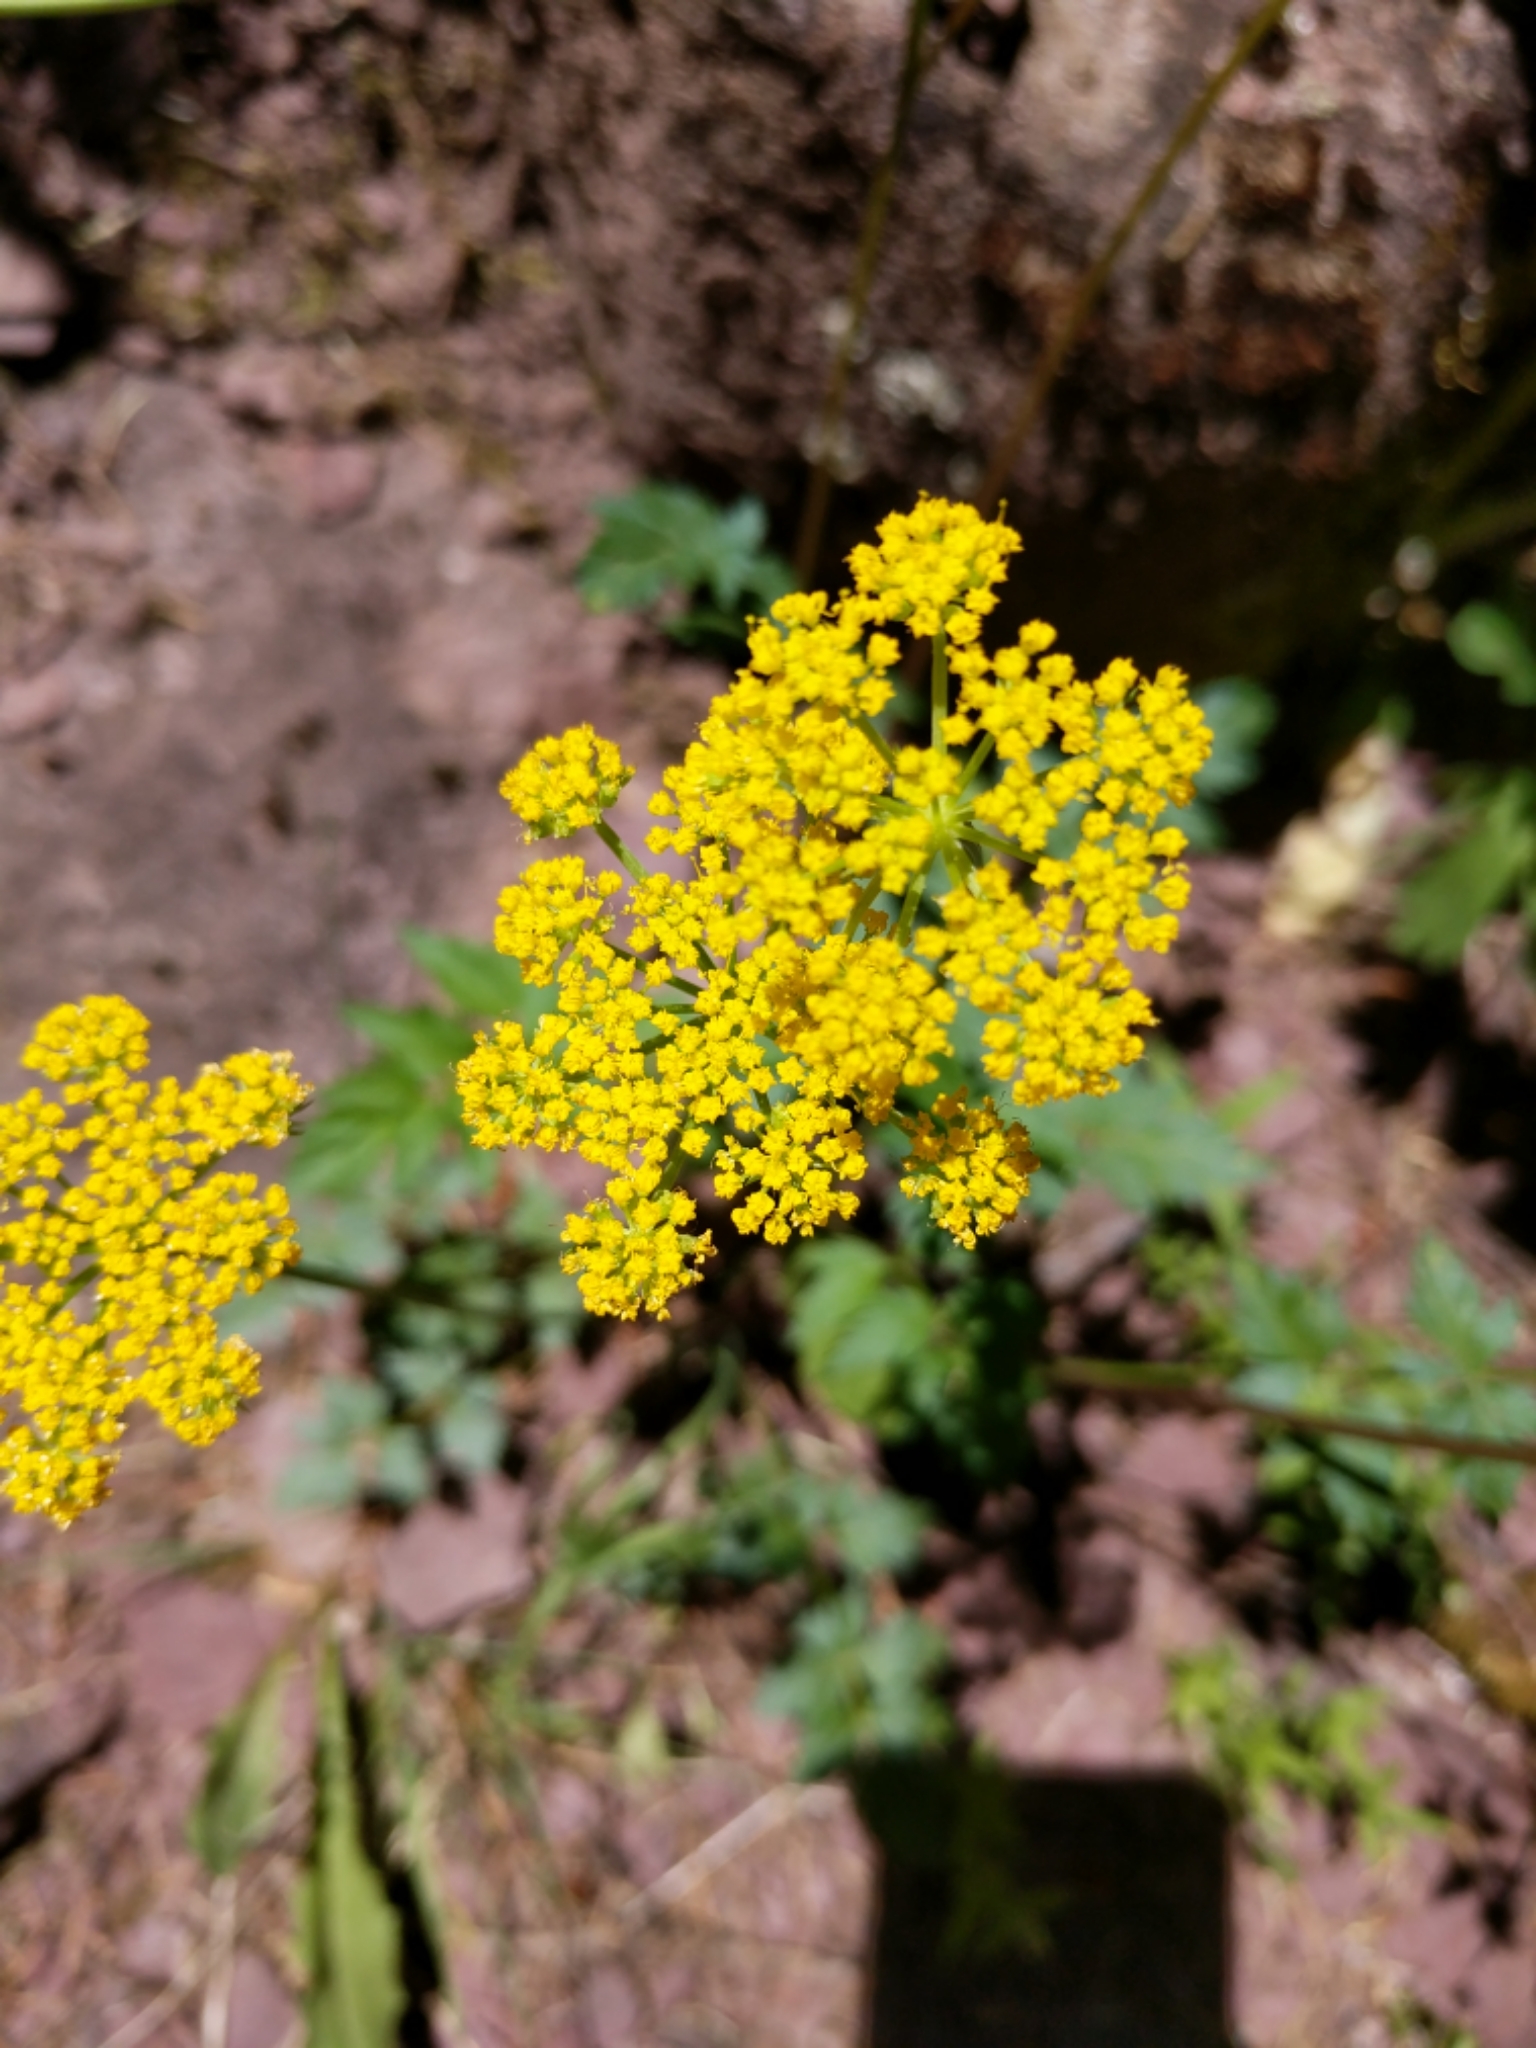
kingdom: Plantae
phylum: Tracheophyta
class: Magnoliopsida
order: Apiales
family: Apiaceae
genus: Cymopterus
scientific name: Cymopterus lemmonii
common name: Lemmon's spring-parsley
